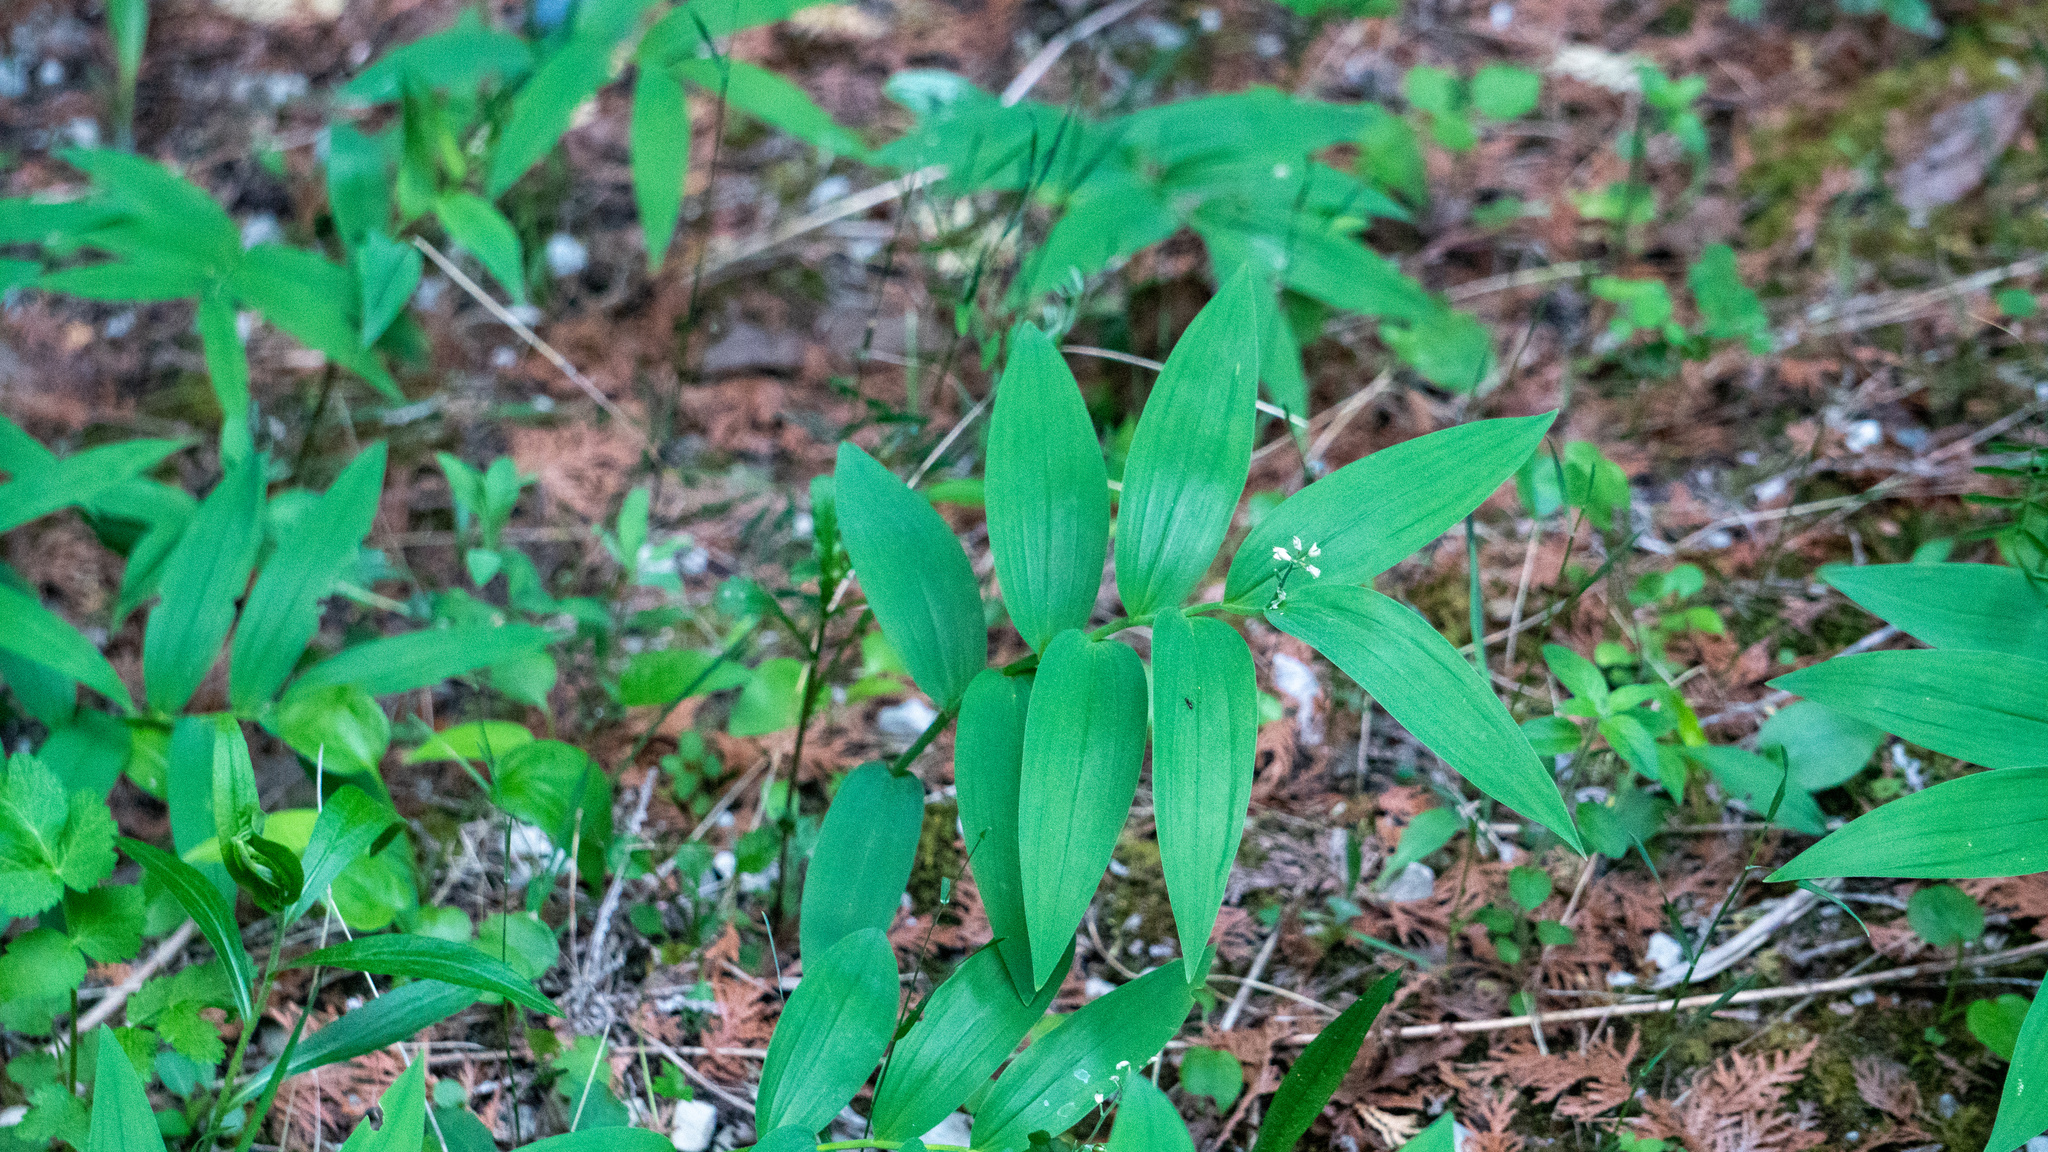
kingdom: Plantae
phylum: Tracheophyta
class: Liliopsida
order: Asparagales
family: Asparagaceae
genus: Maianthemum
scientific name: Maianthemum stellatum
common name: Little false solomon's seal
